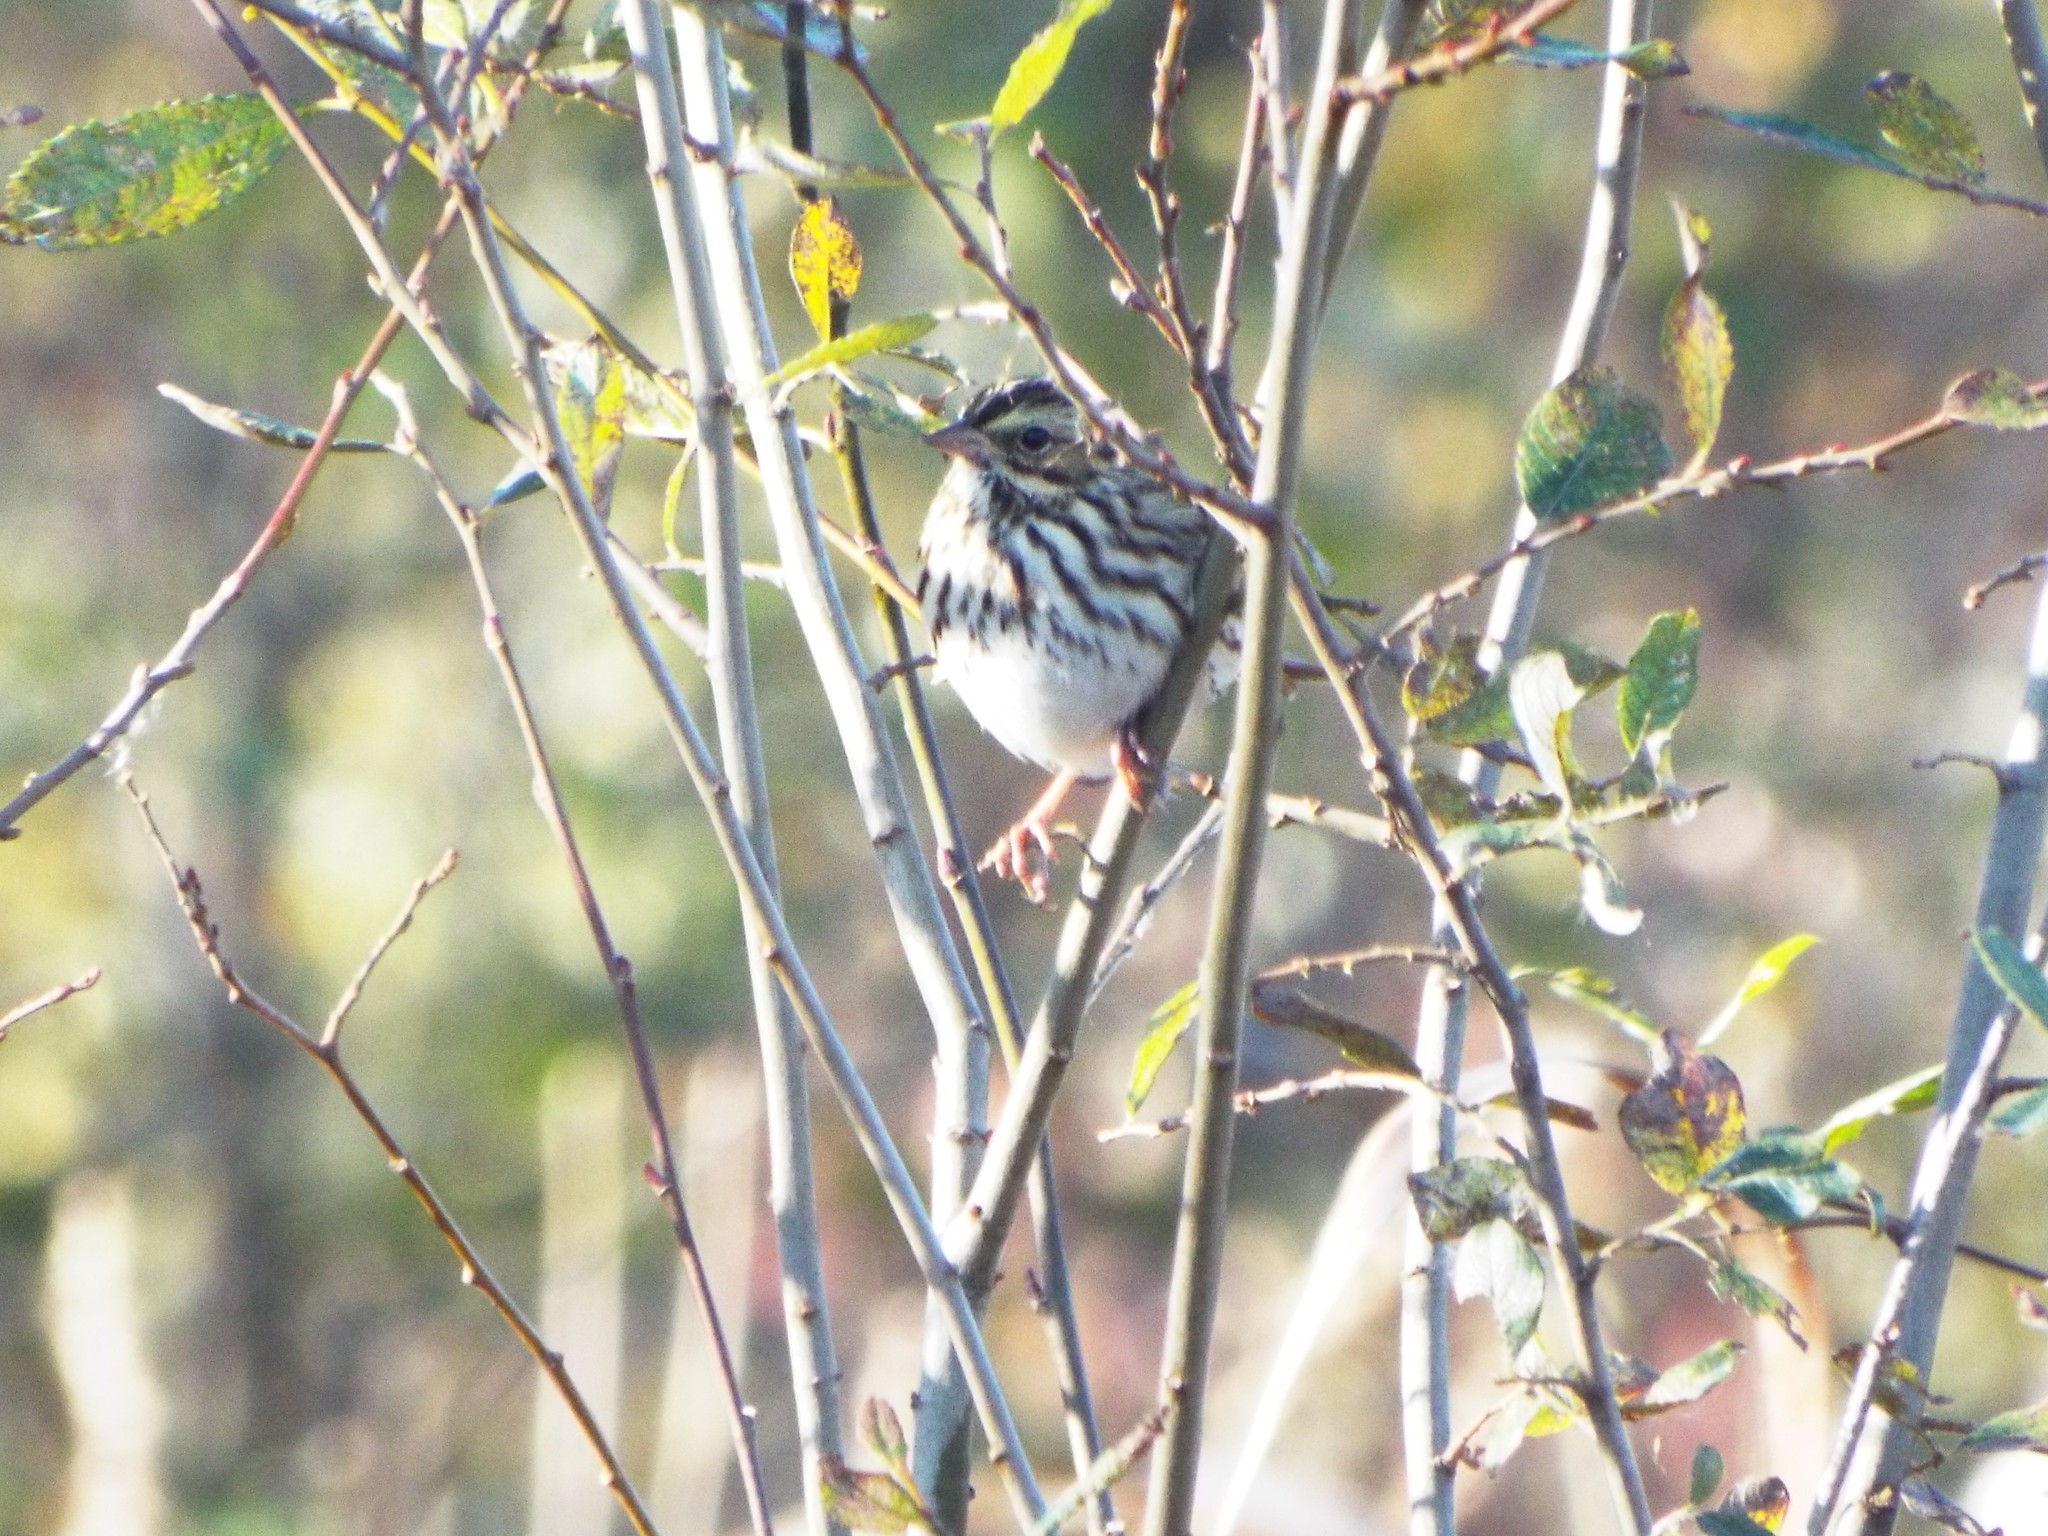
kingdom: Animalia
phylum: Chordata
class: Aves
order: Passeriformes
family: Passerellidae
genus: Passerculus
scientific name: Passerculus sandwichensis
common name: Savannah sparrow
